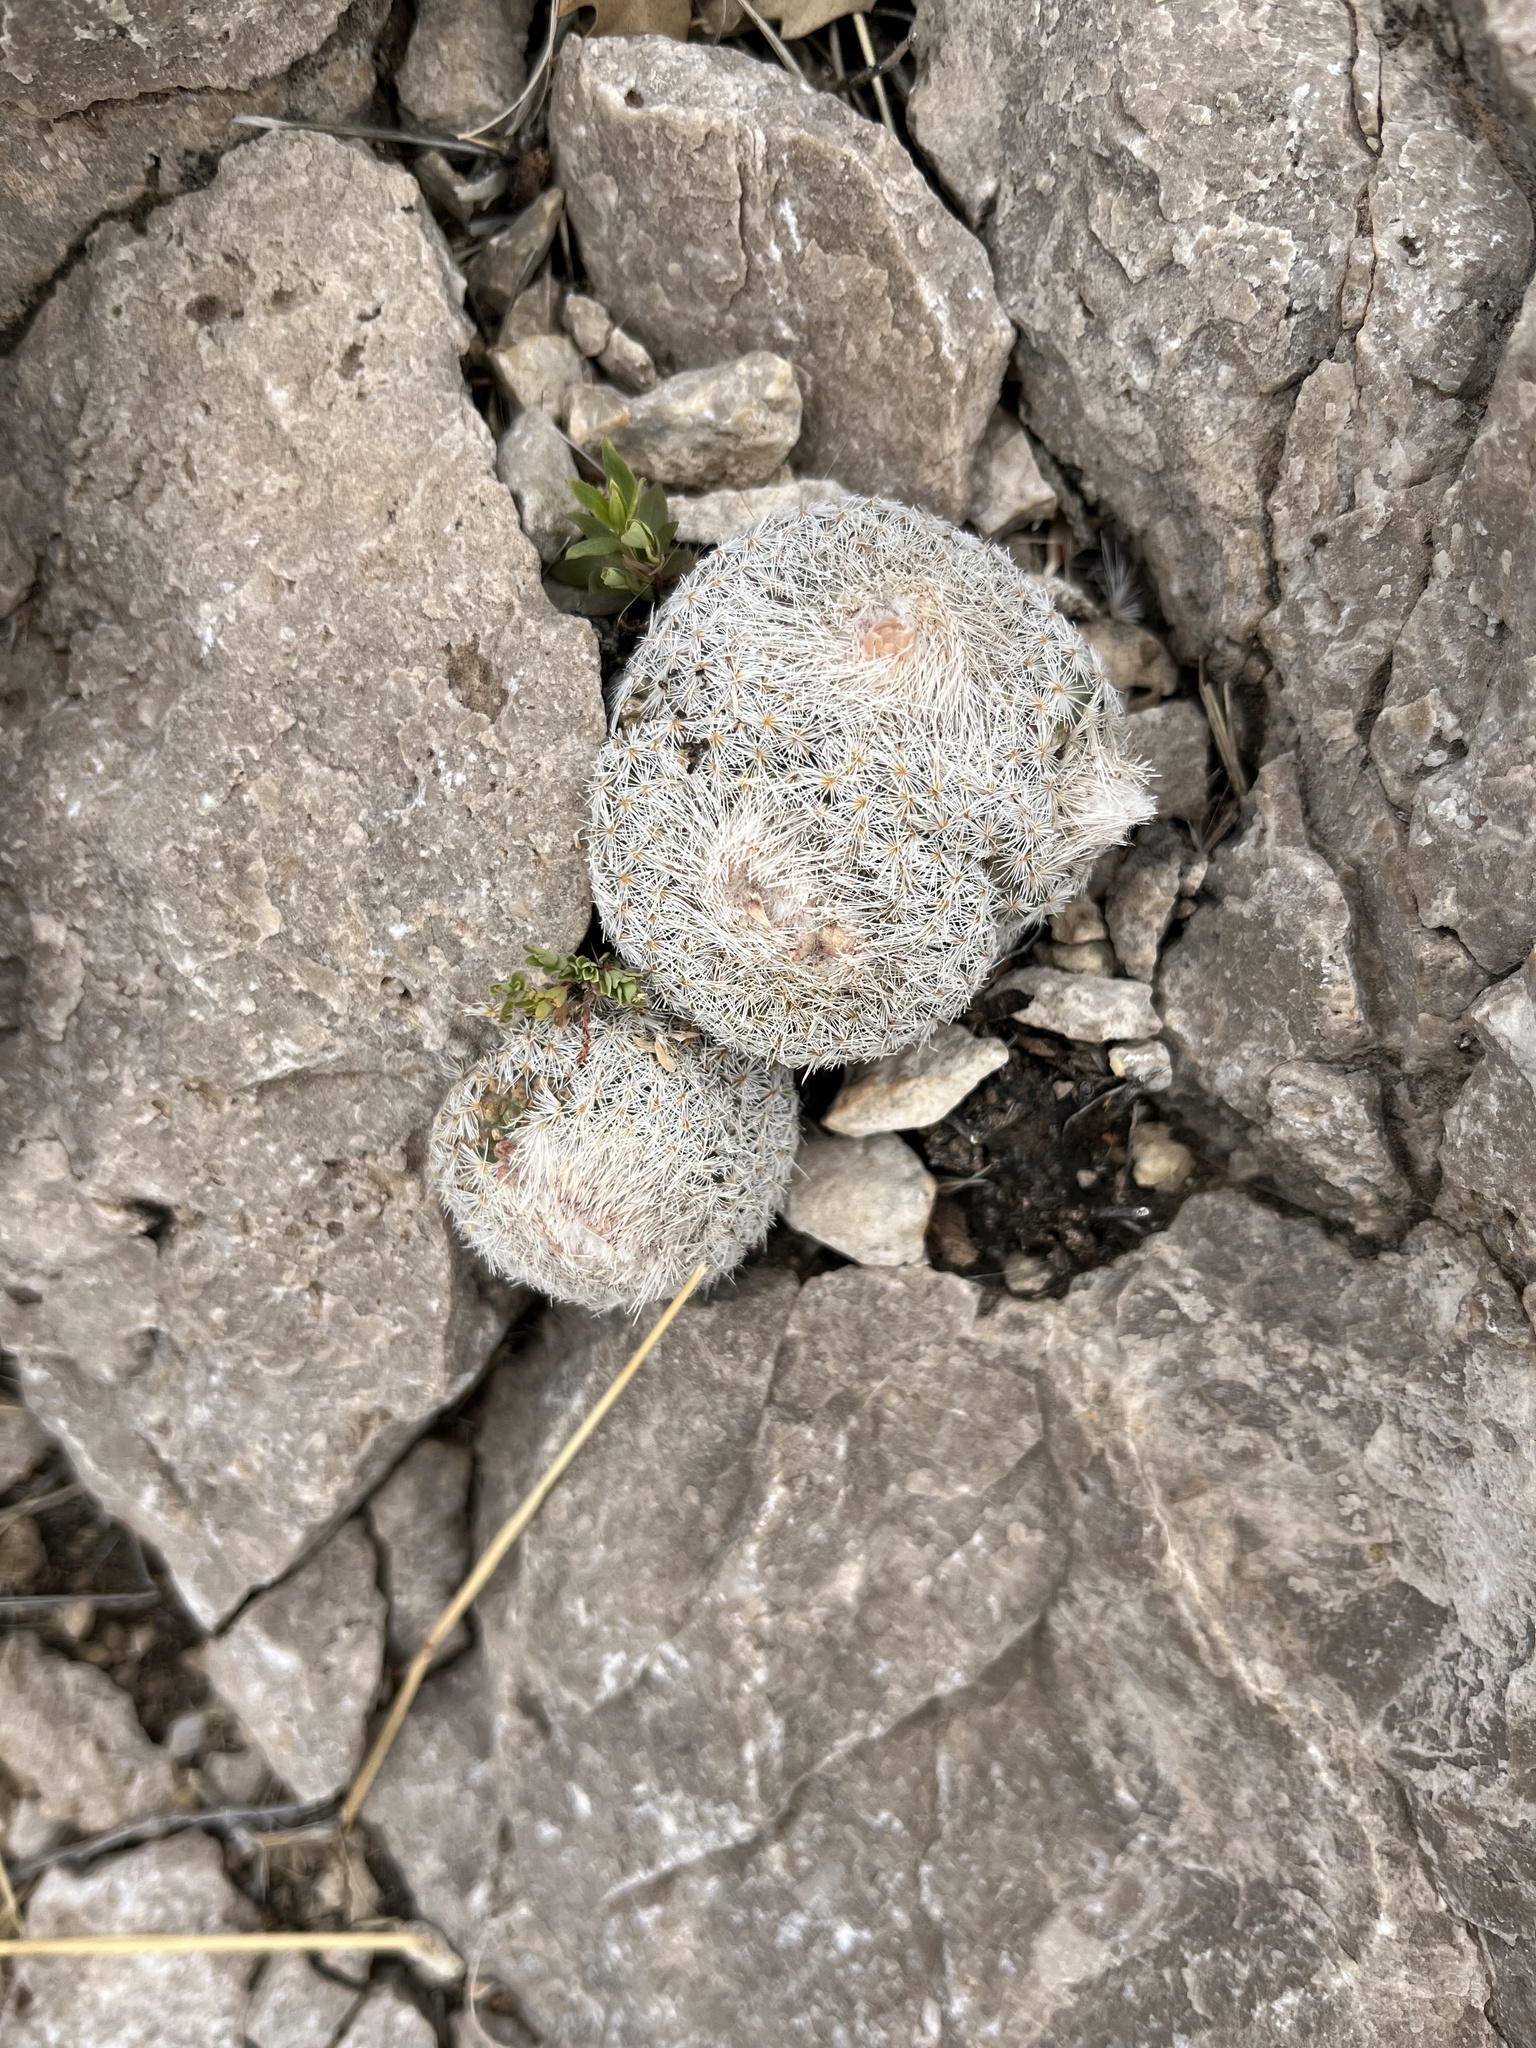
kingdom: Plantae
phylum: Tracheophyta
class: Magnoliopsida
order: Caryophyllales
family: Cactaceae
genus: Epithelantha
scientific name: Epithelantha micromeris
